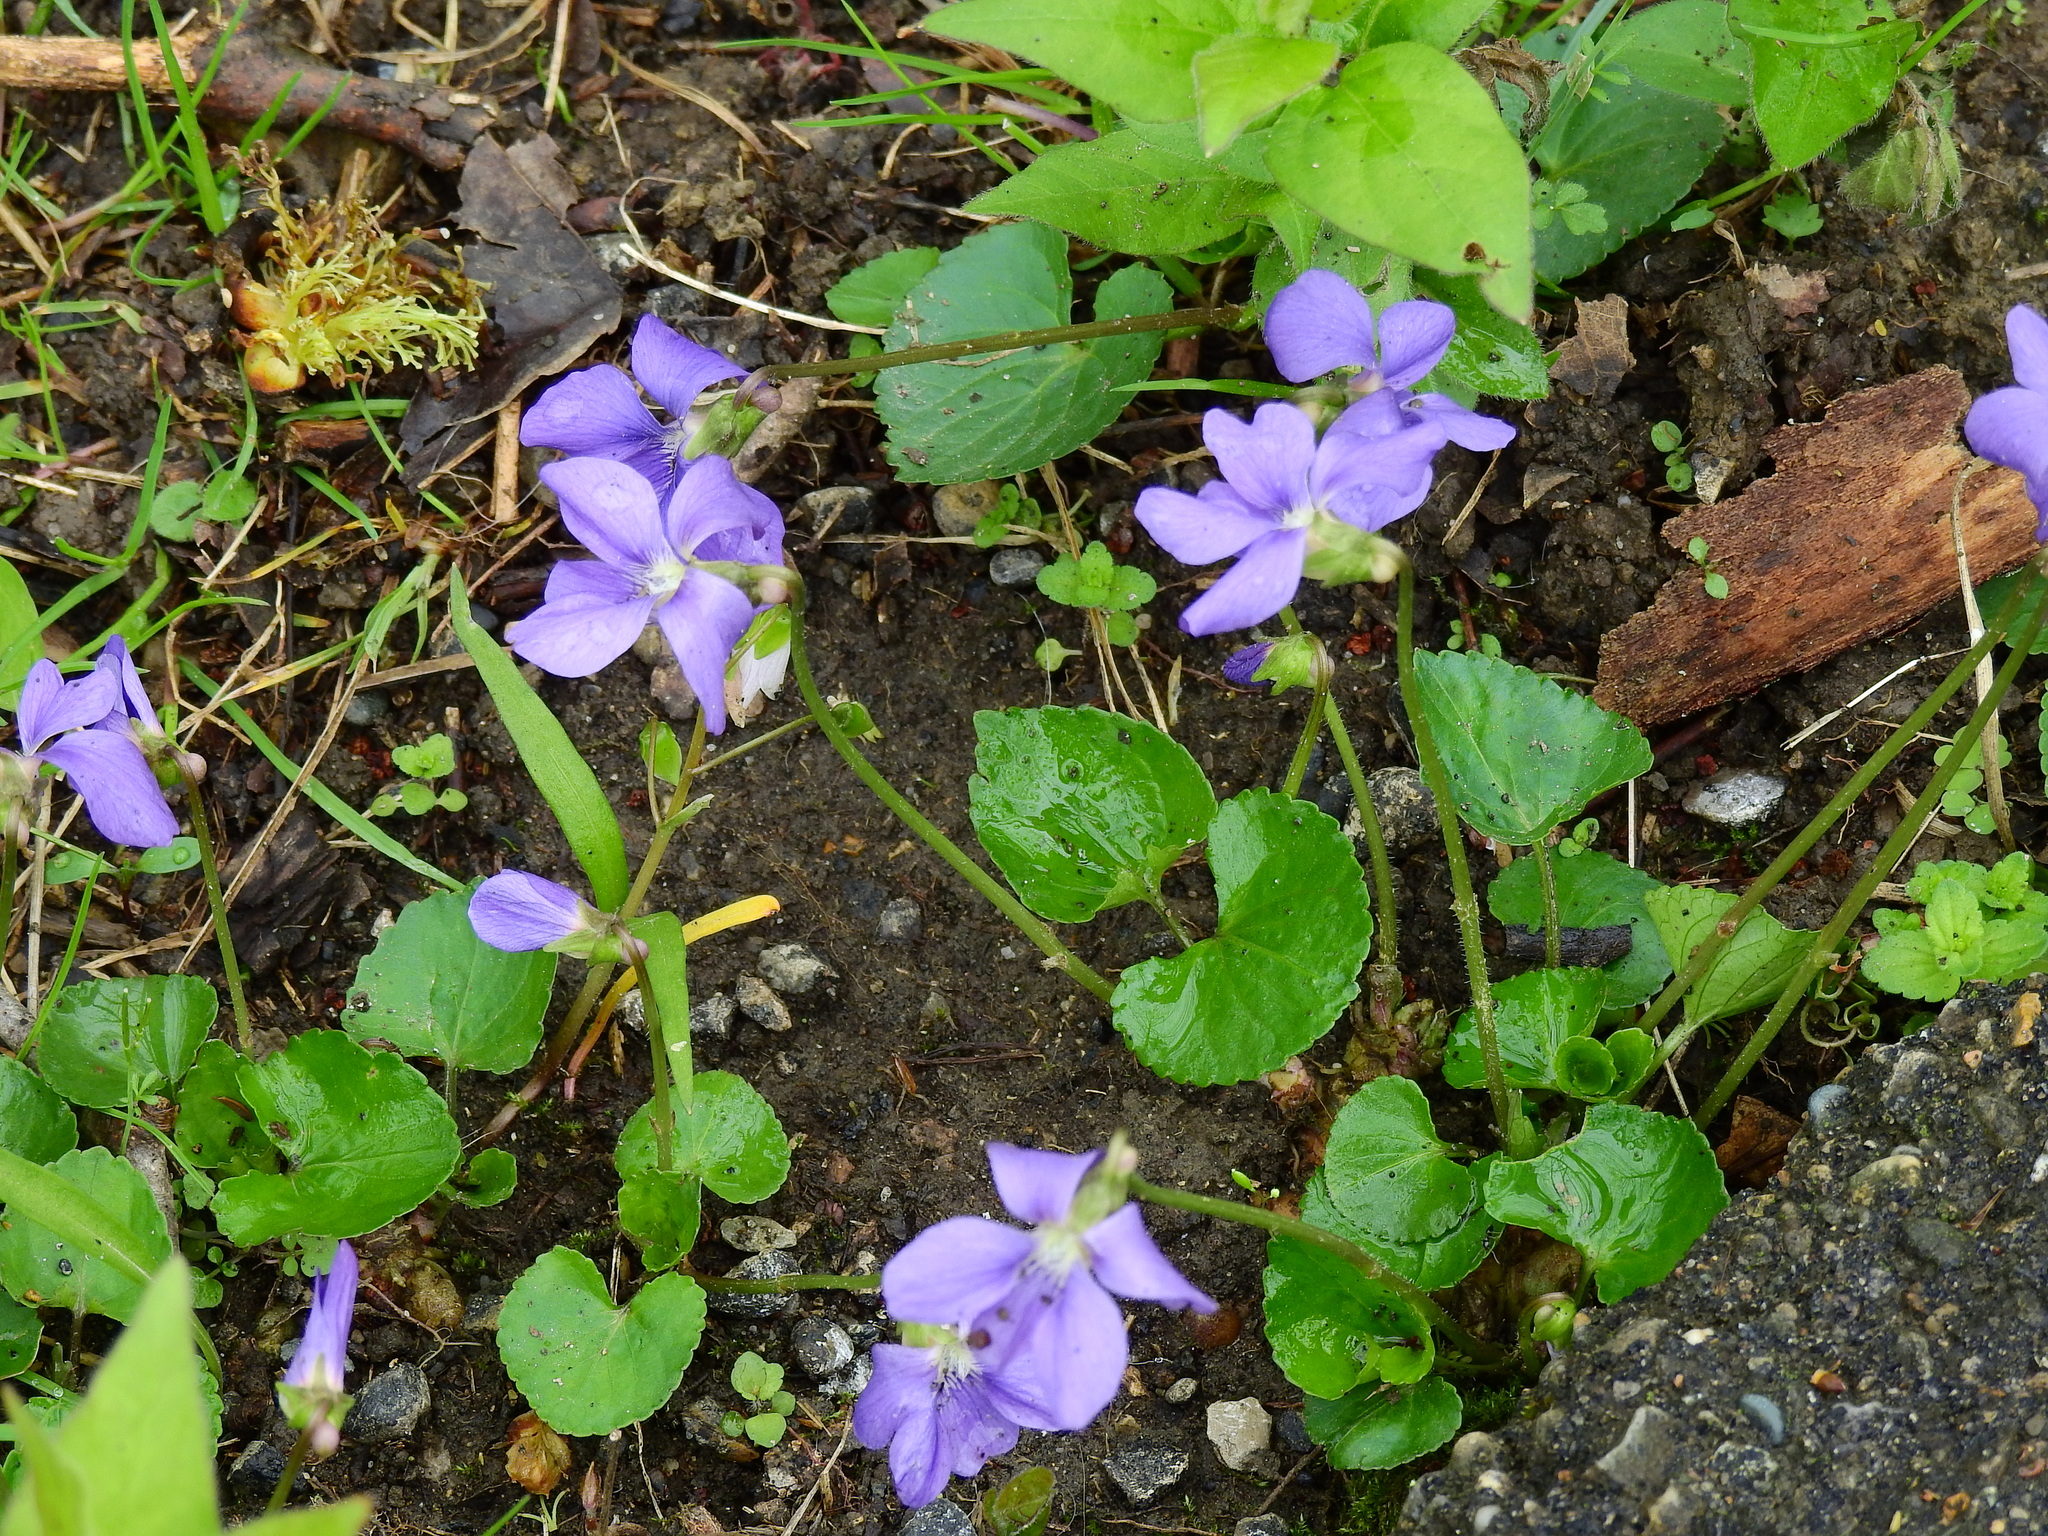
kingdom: Plantae
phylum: Tracheophyta
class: Magnoliopsida
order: Malpighiales
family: Violaceae
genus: Viola
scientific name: Viola sororia
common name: Dooryard violet
